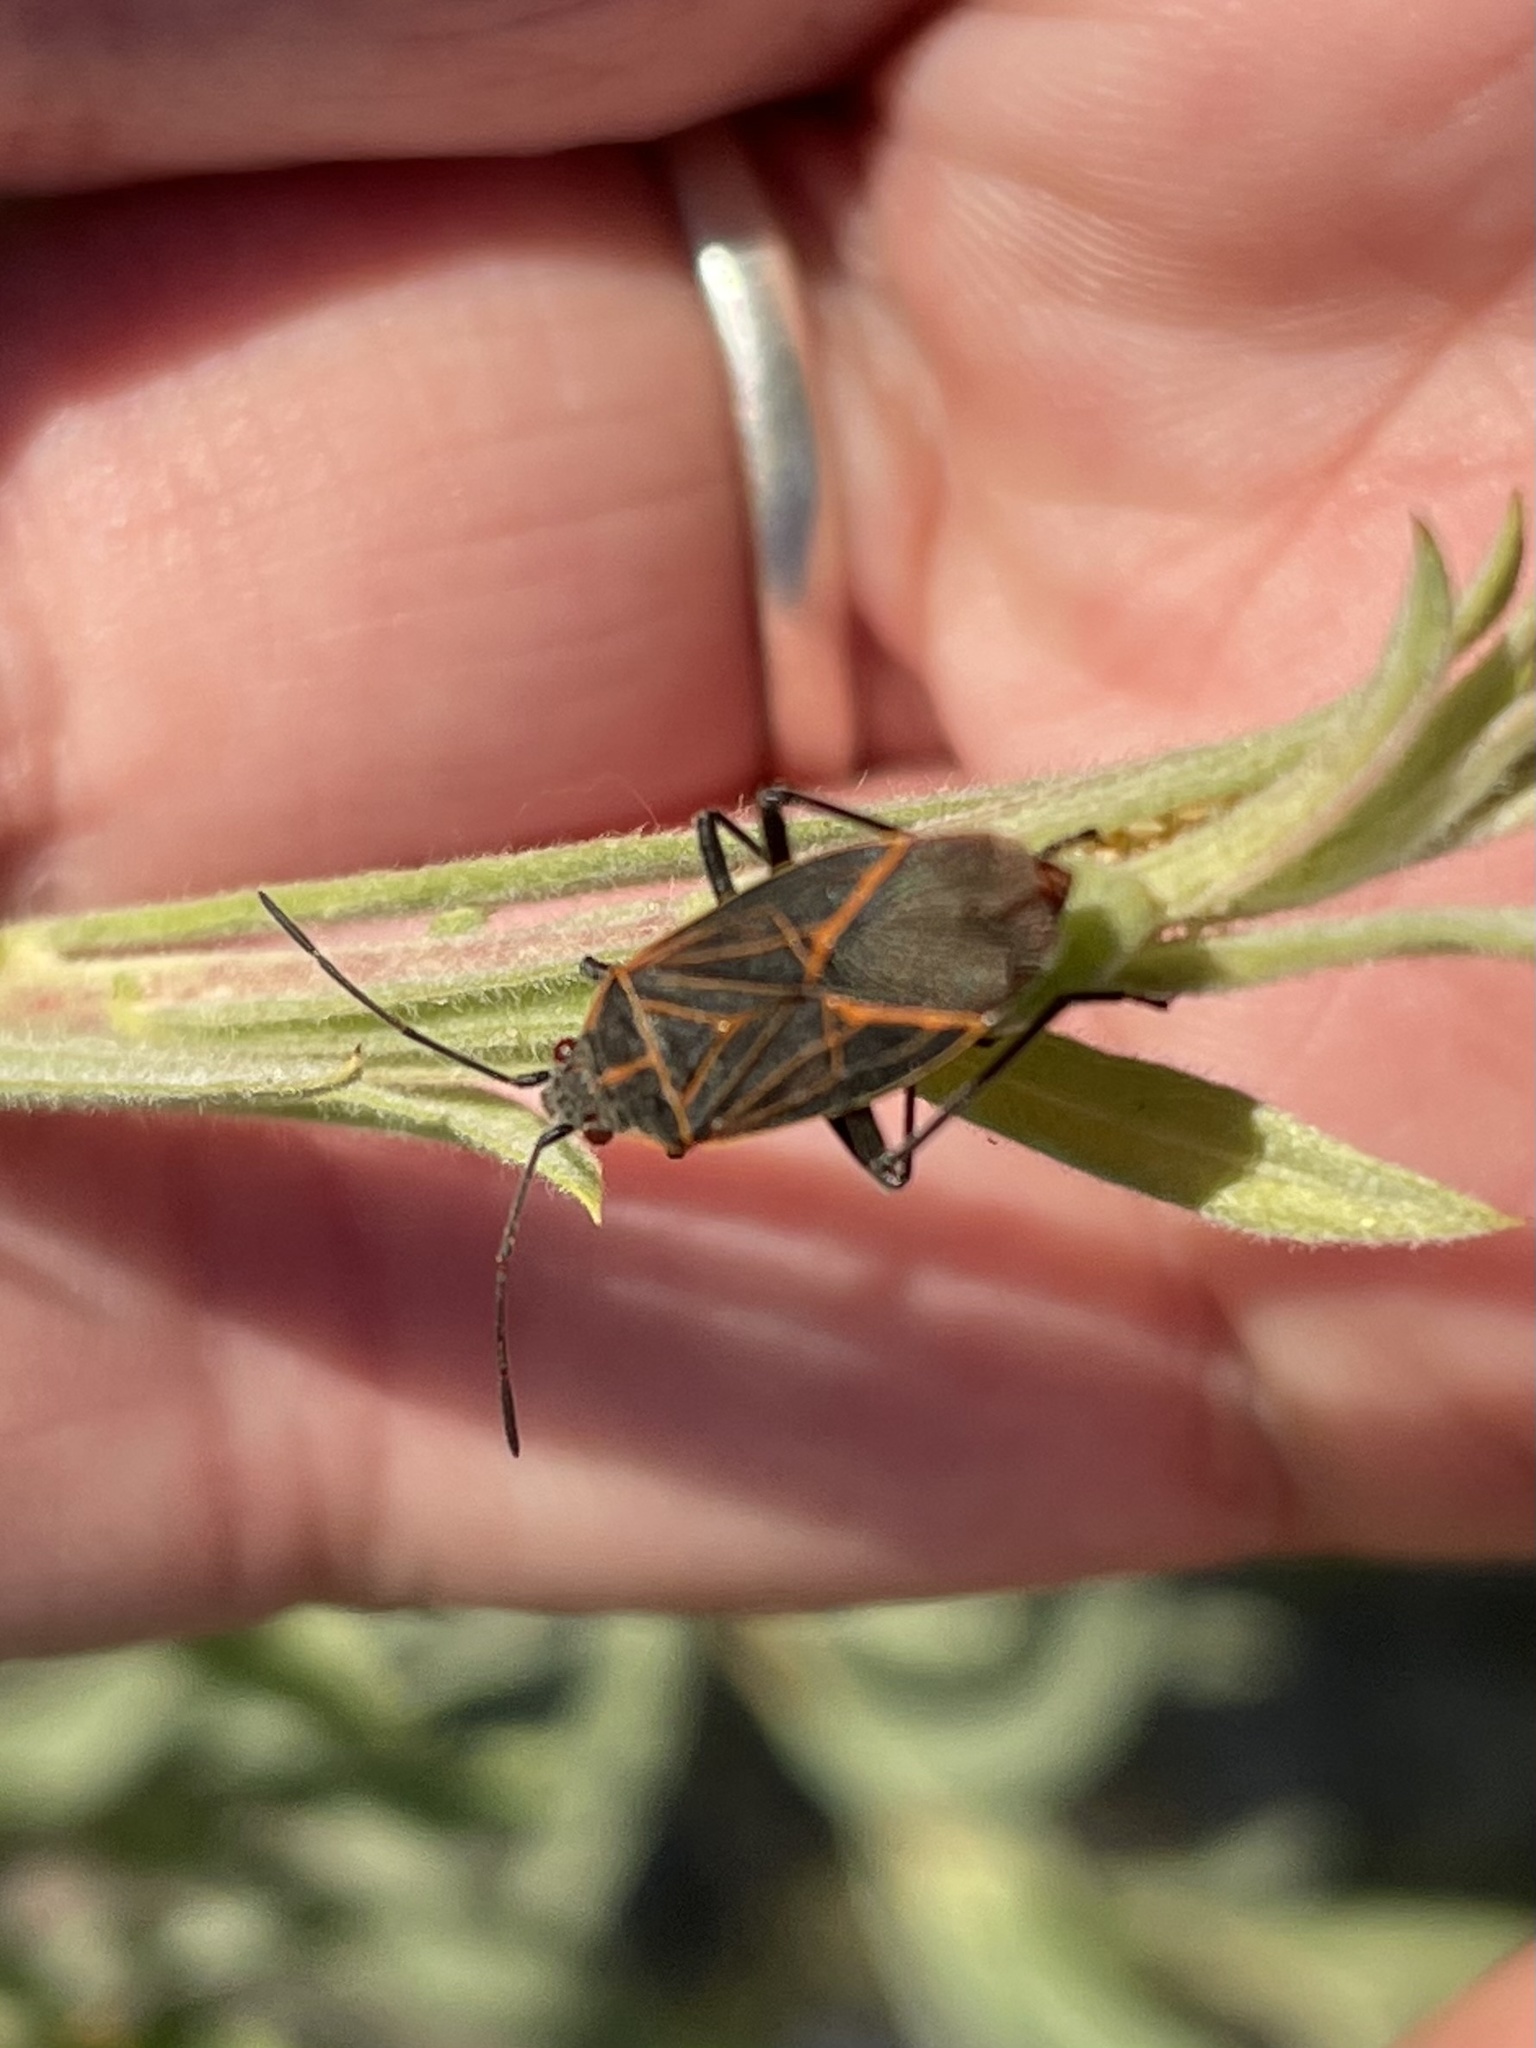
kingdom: Animalia
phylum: Arthropoda
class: Insecta
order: Hemiptera
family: Rhopalidae
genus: Boisea
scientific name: Boisea rubrolineata
